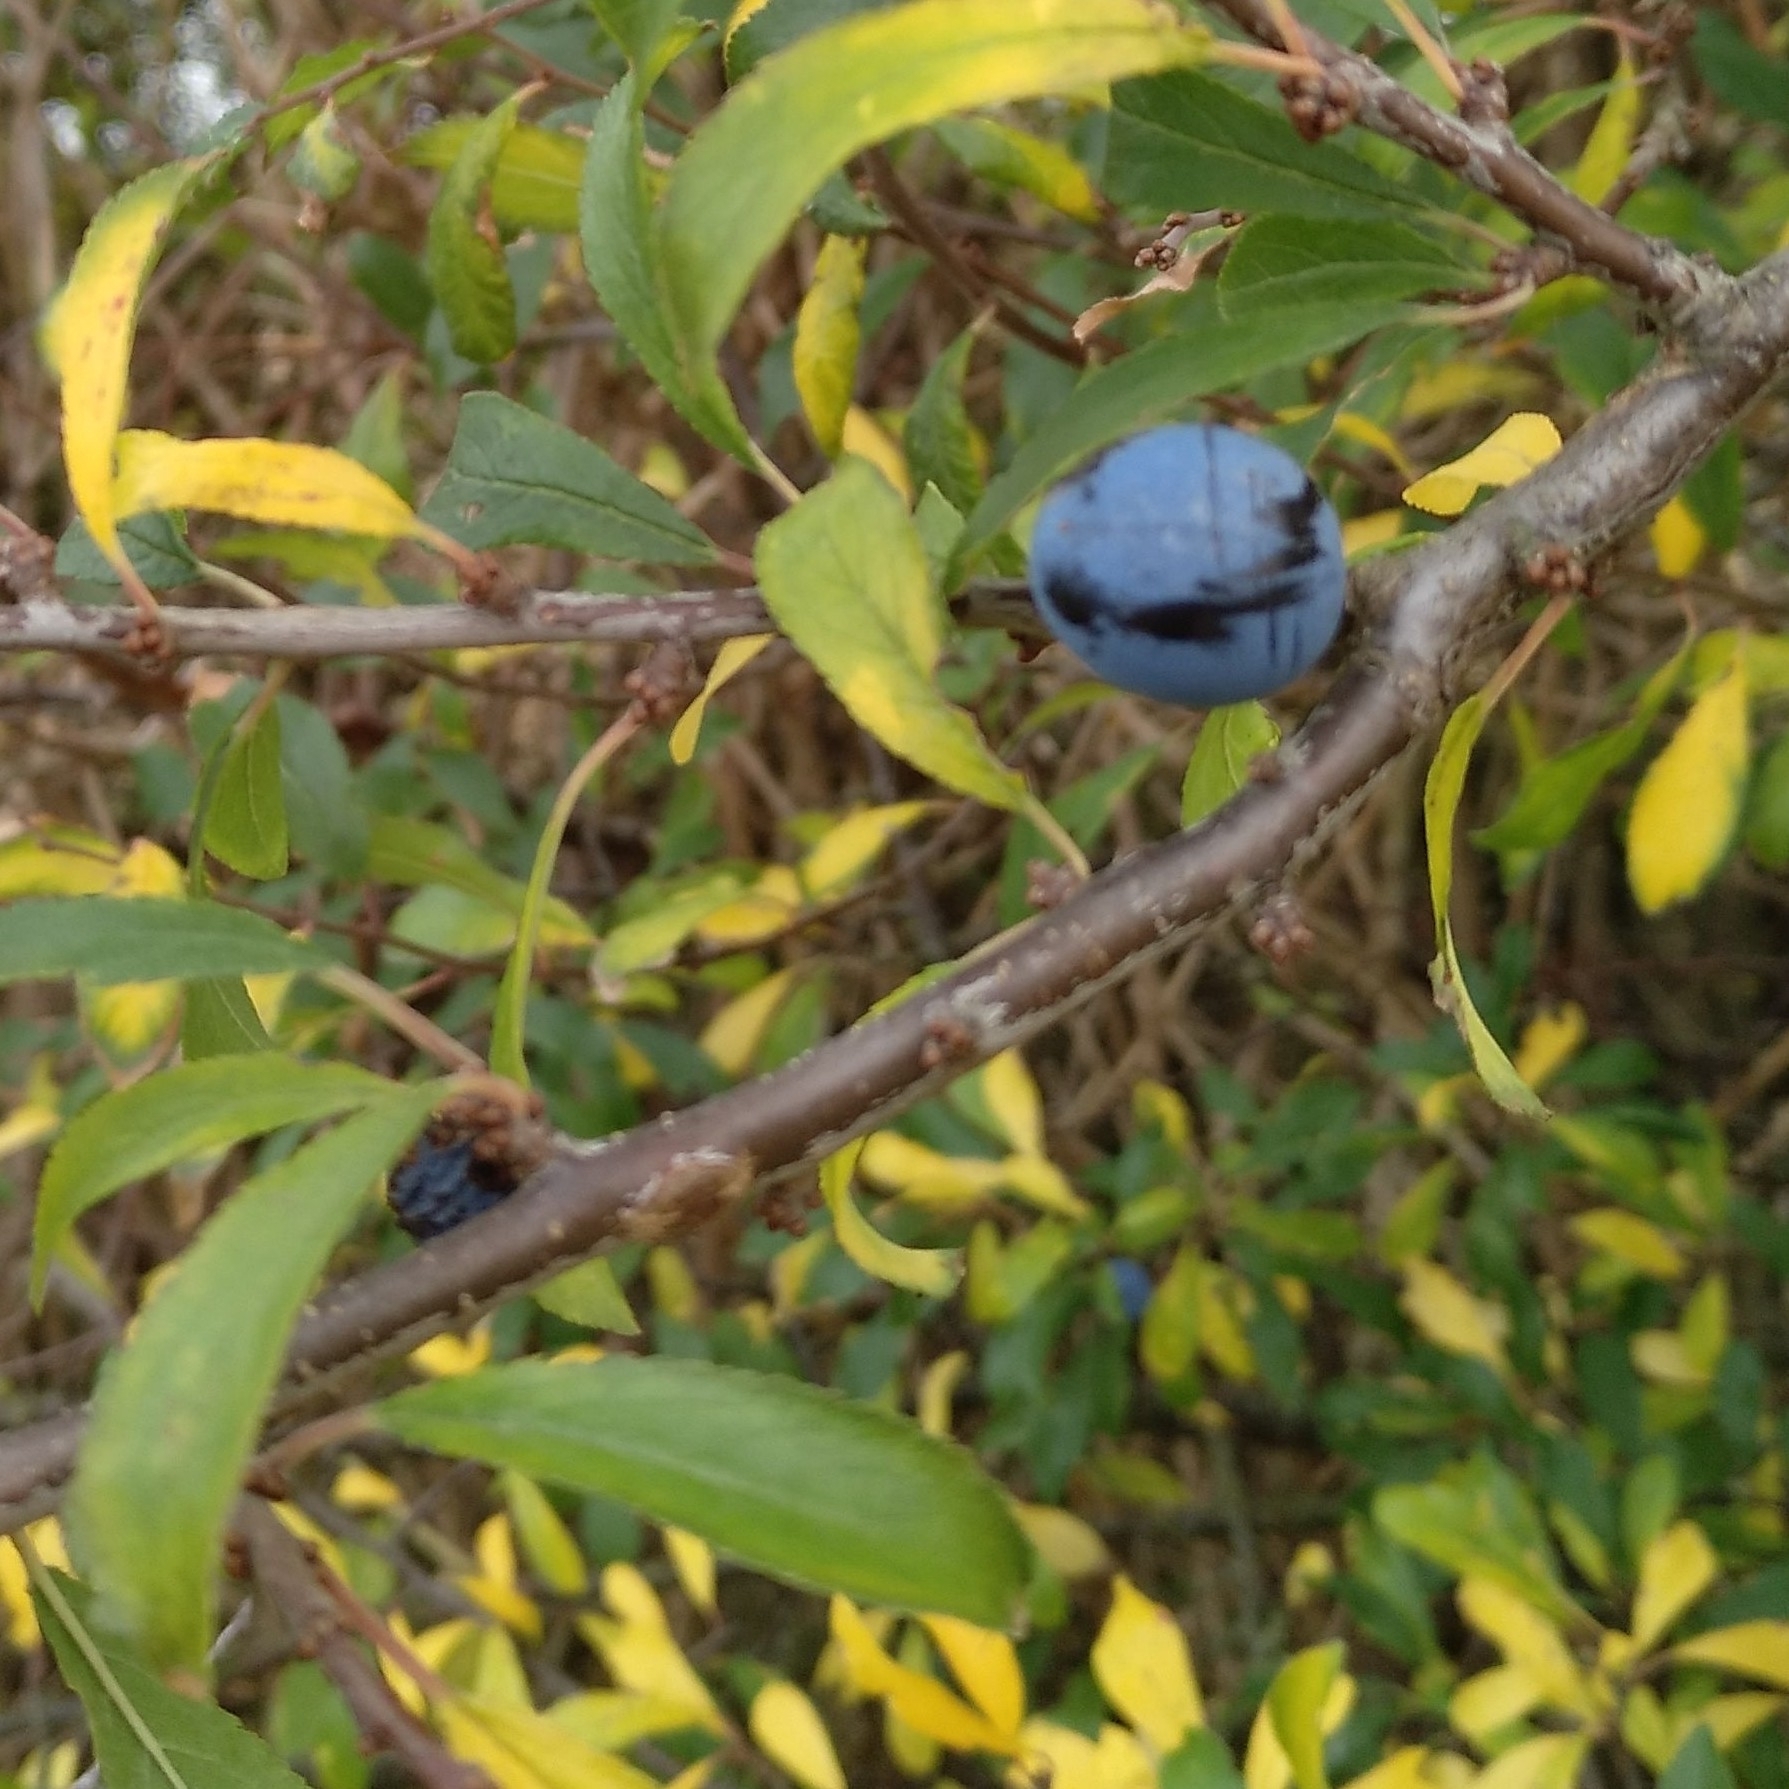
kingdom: Plantae
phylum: Tracheophyta
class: Magnoliopsida
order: Rosales
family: Rosaceae
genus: Prunus
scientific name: Prunus spinosa
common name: Blackthorn
